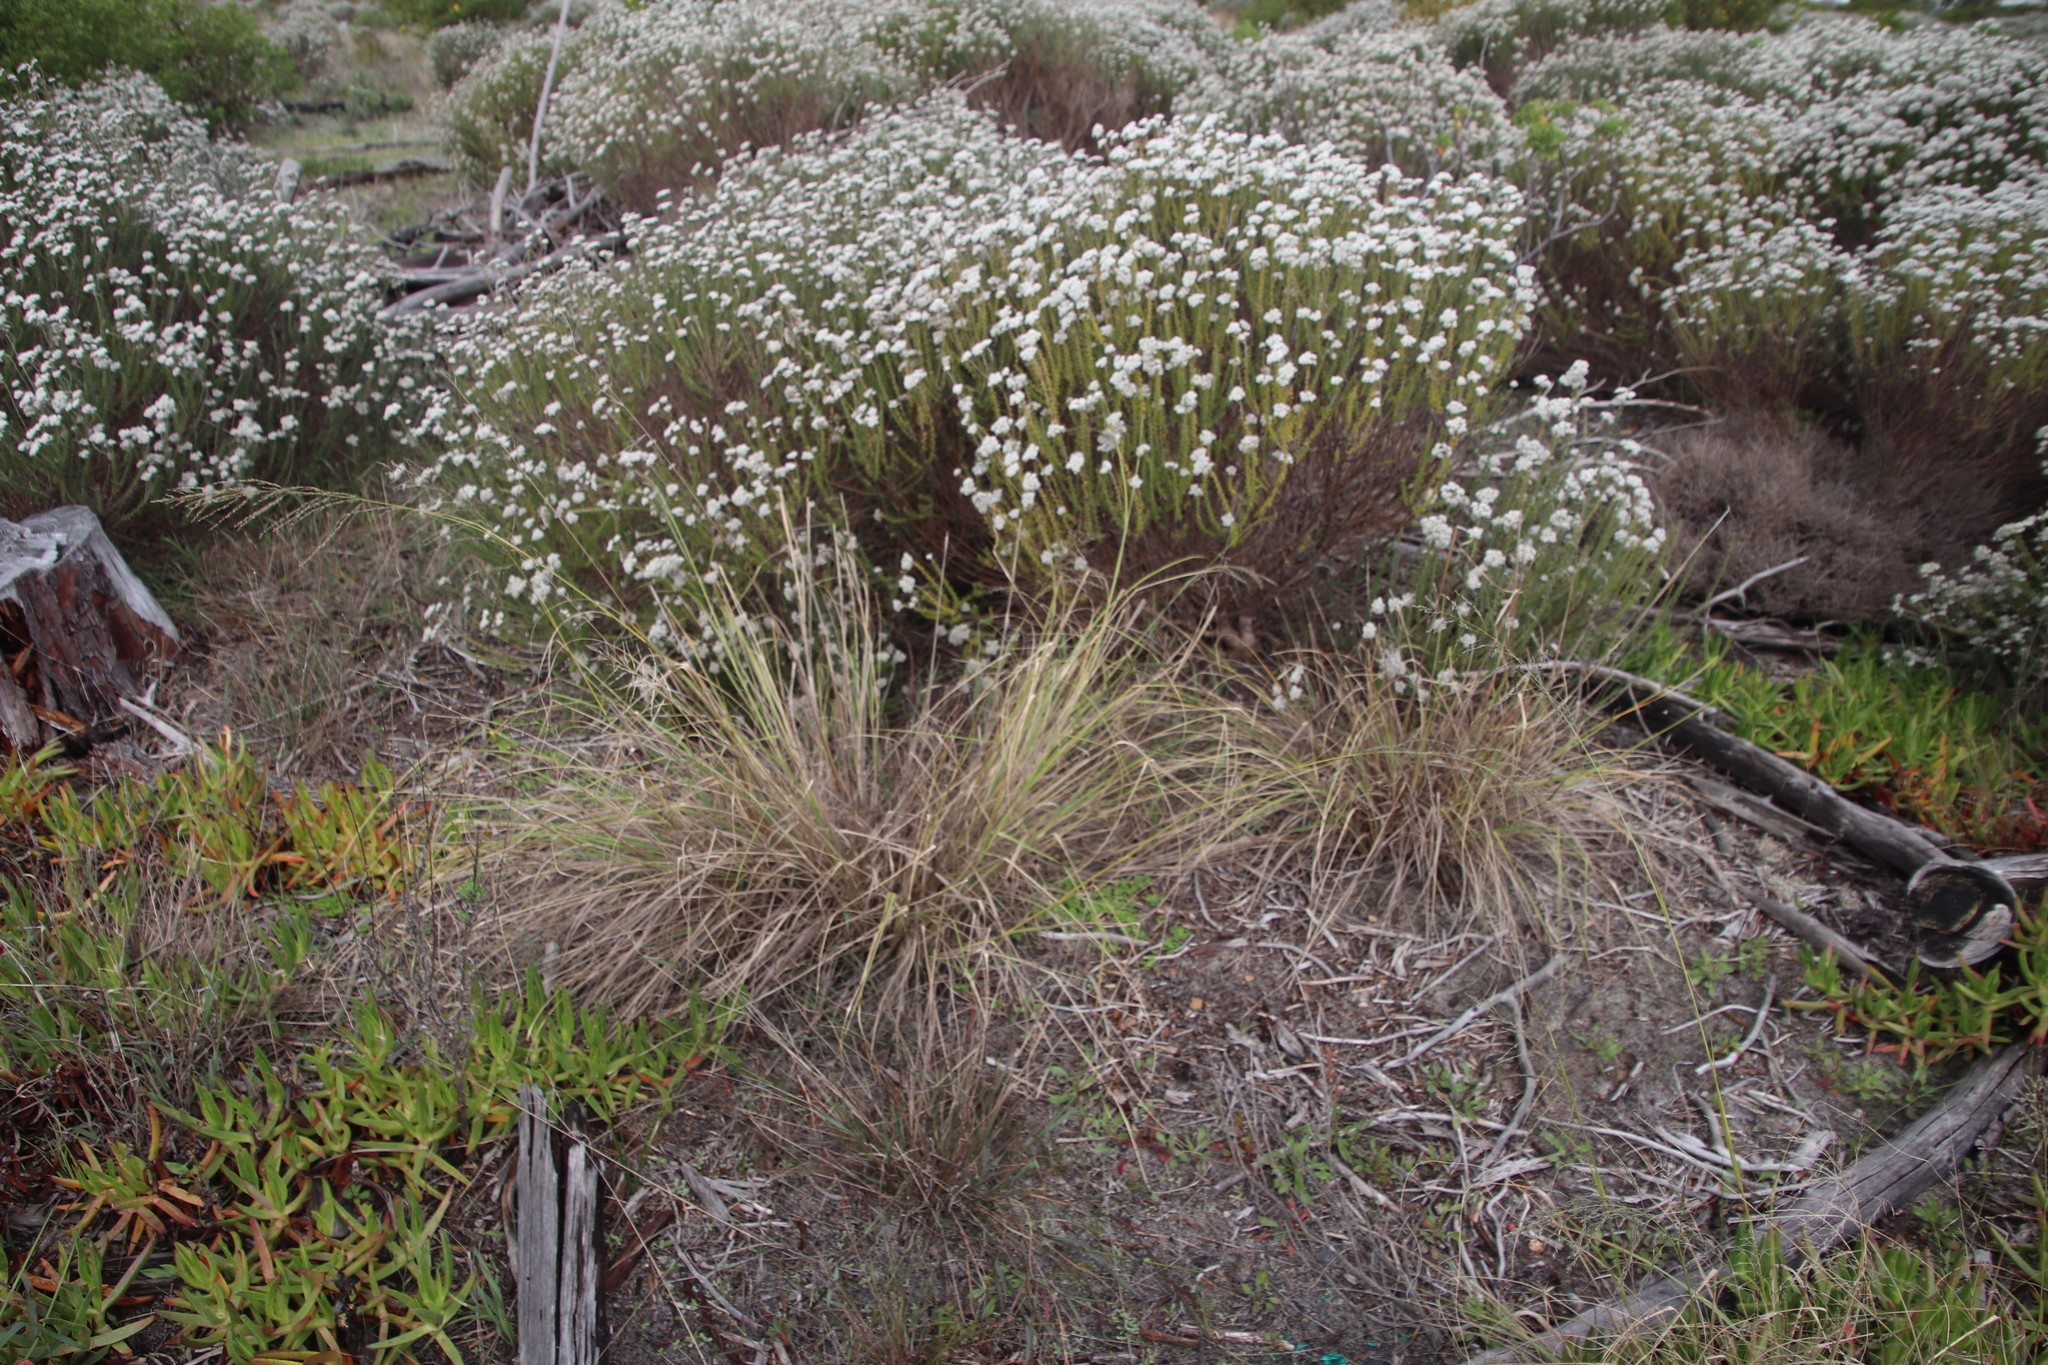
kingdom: Plantae
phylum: Tracheophyta
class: Liliopsida
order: Poales
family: Poaceae
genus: Eragrostis
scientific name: Eragrostis curvula
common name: African love-grass
